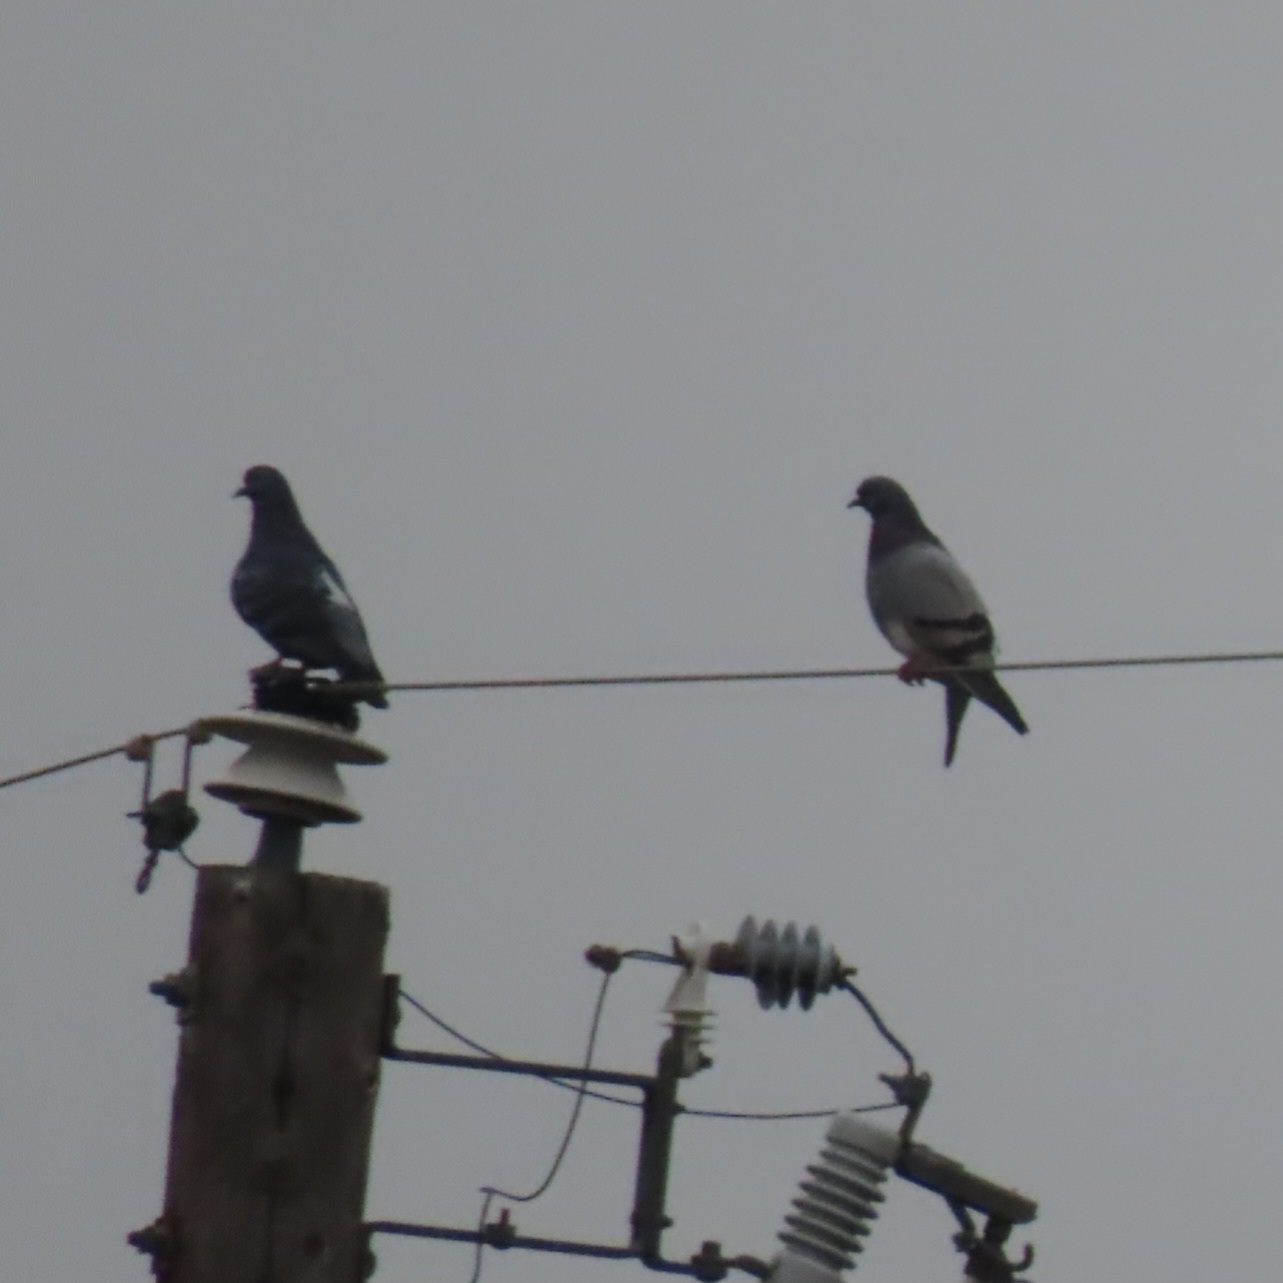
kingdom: Animalia
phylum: Chordata
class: Aves
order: Columbiformes
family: Columbidae
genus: Columba
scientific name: Columba livia
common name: Rock pigeon
